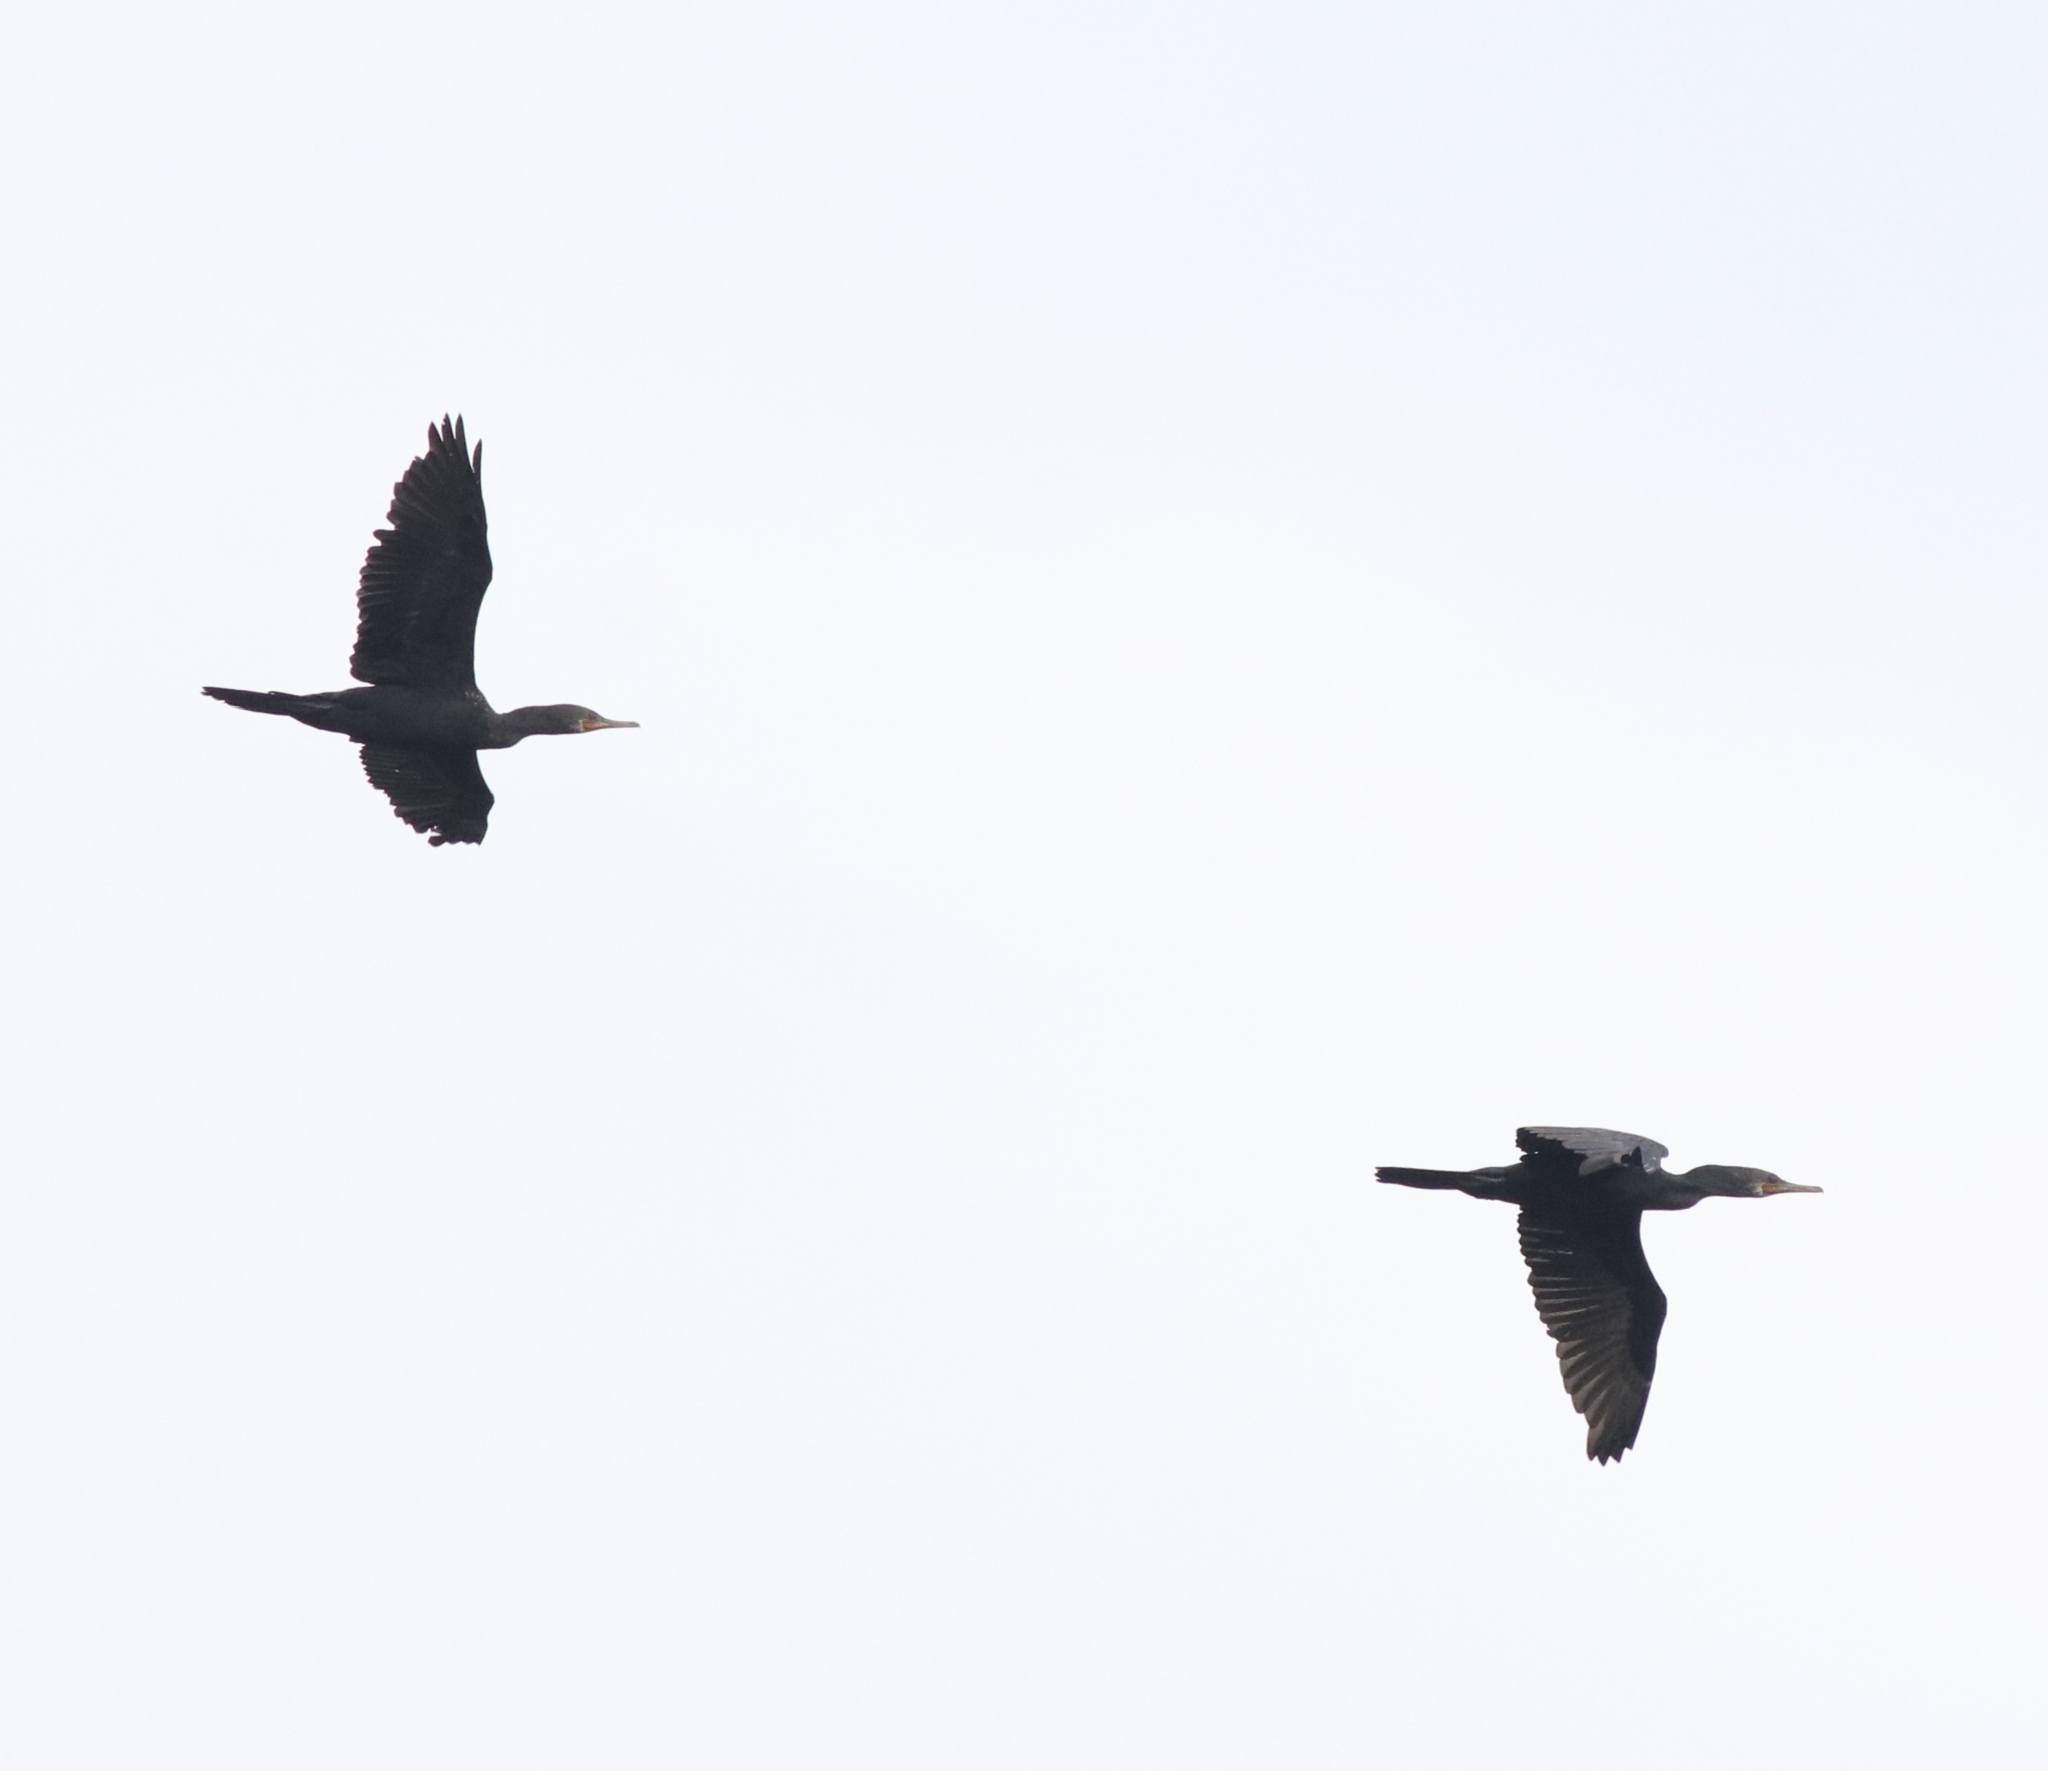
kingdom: Animalia
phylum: Chordata
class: Aves
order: Suliformes
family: Phalacrocoracidae
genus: Phalacrocorax
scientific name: Phalacrocorax fuscicollis
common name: Indian cormorant
